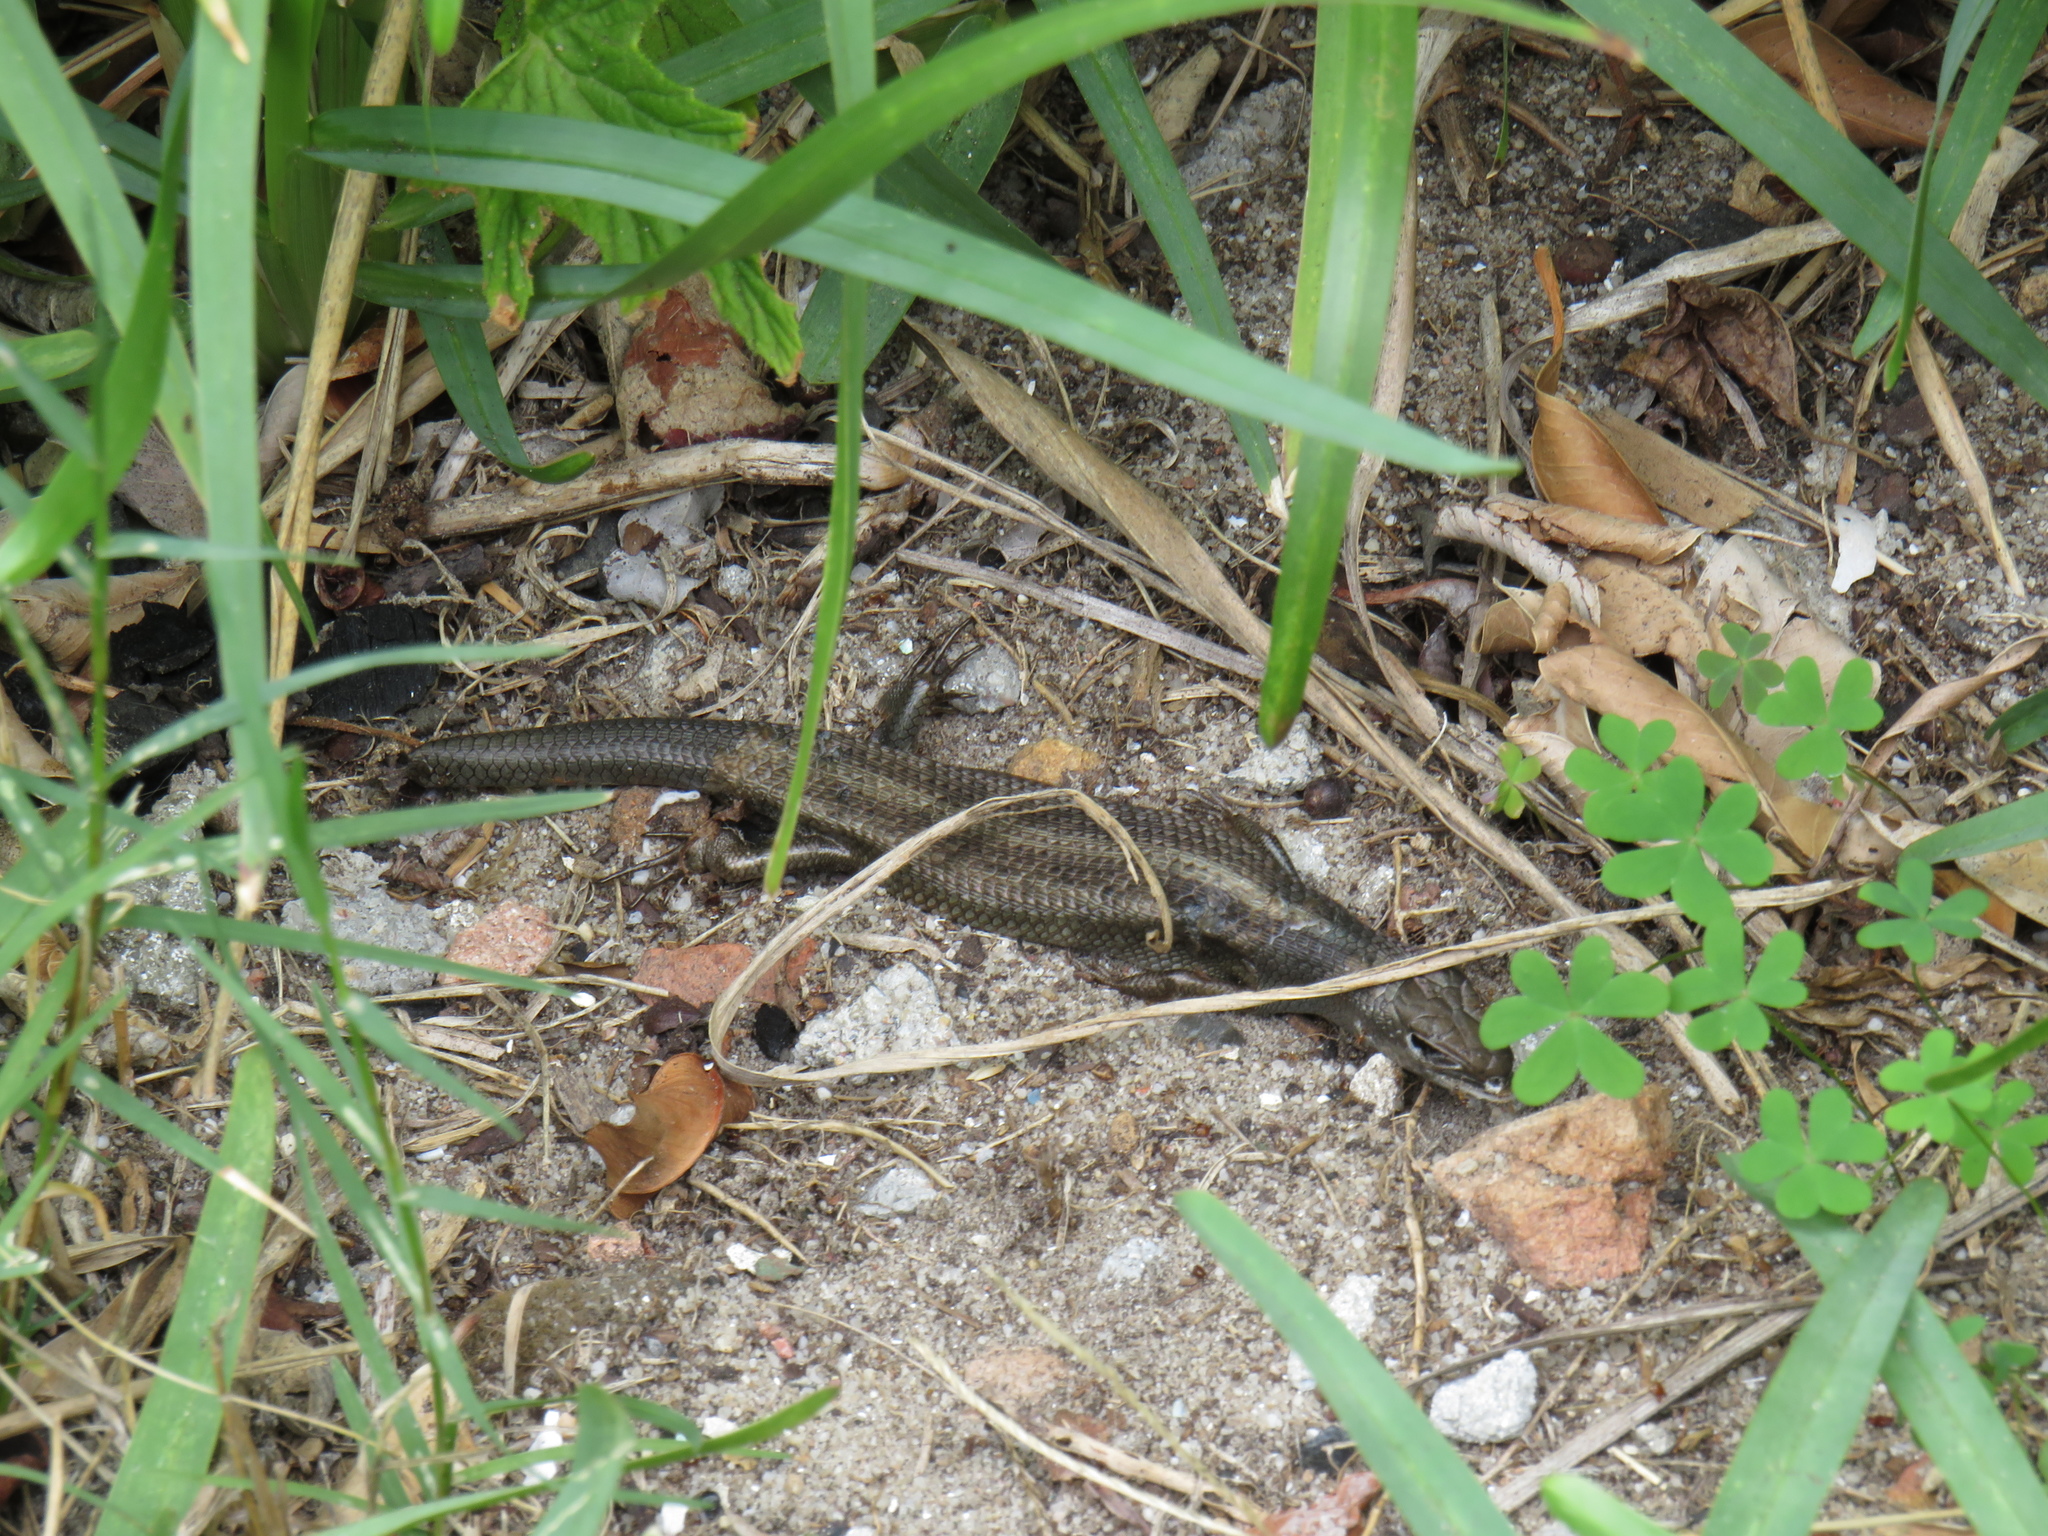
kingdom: Animalia
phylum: Chordata
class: Squamata
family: Scincidae
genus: Trachylepis
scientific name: Trachylepis capensis
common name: Cape skink
